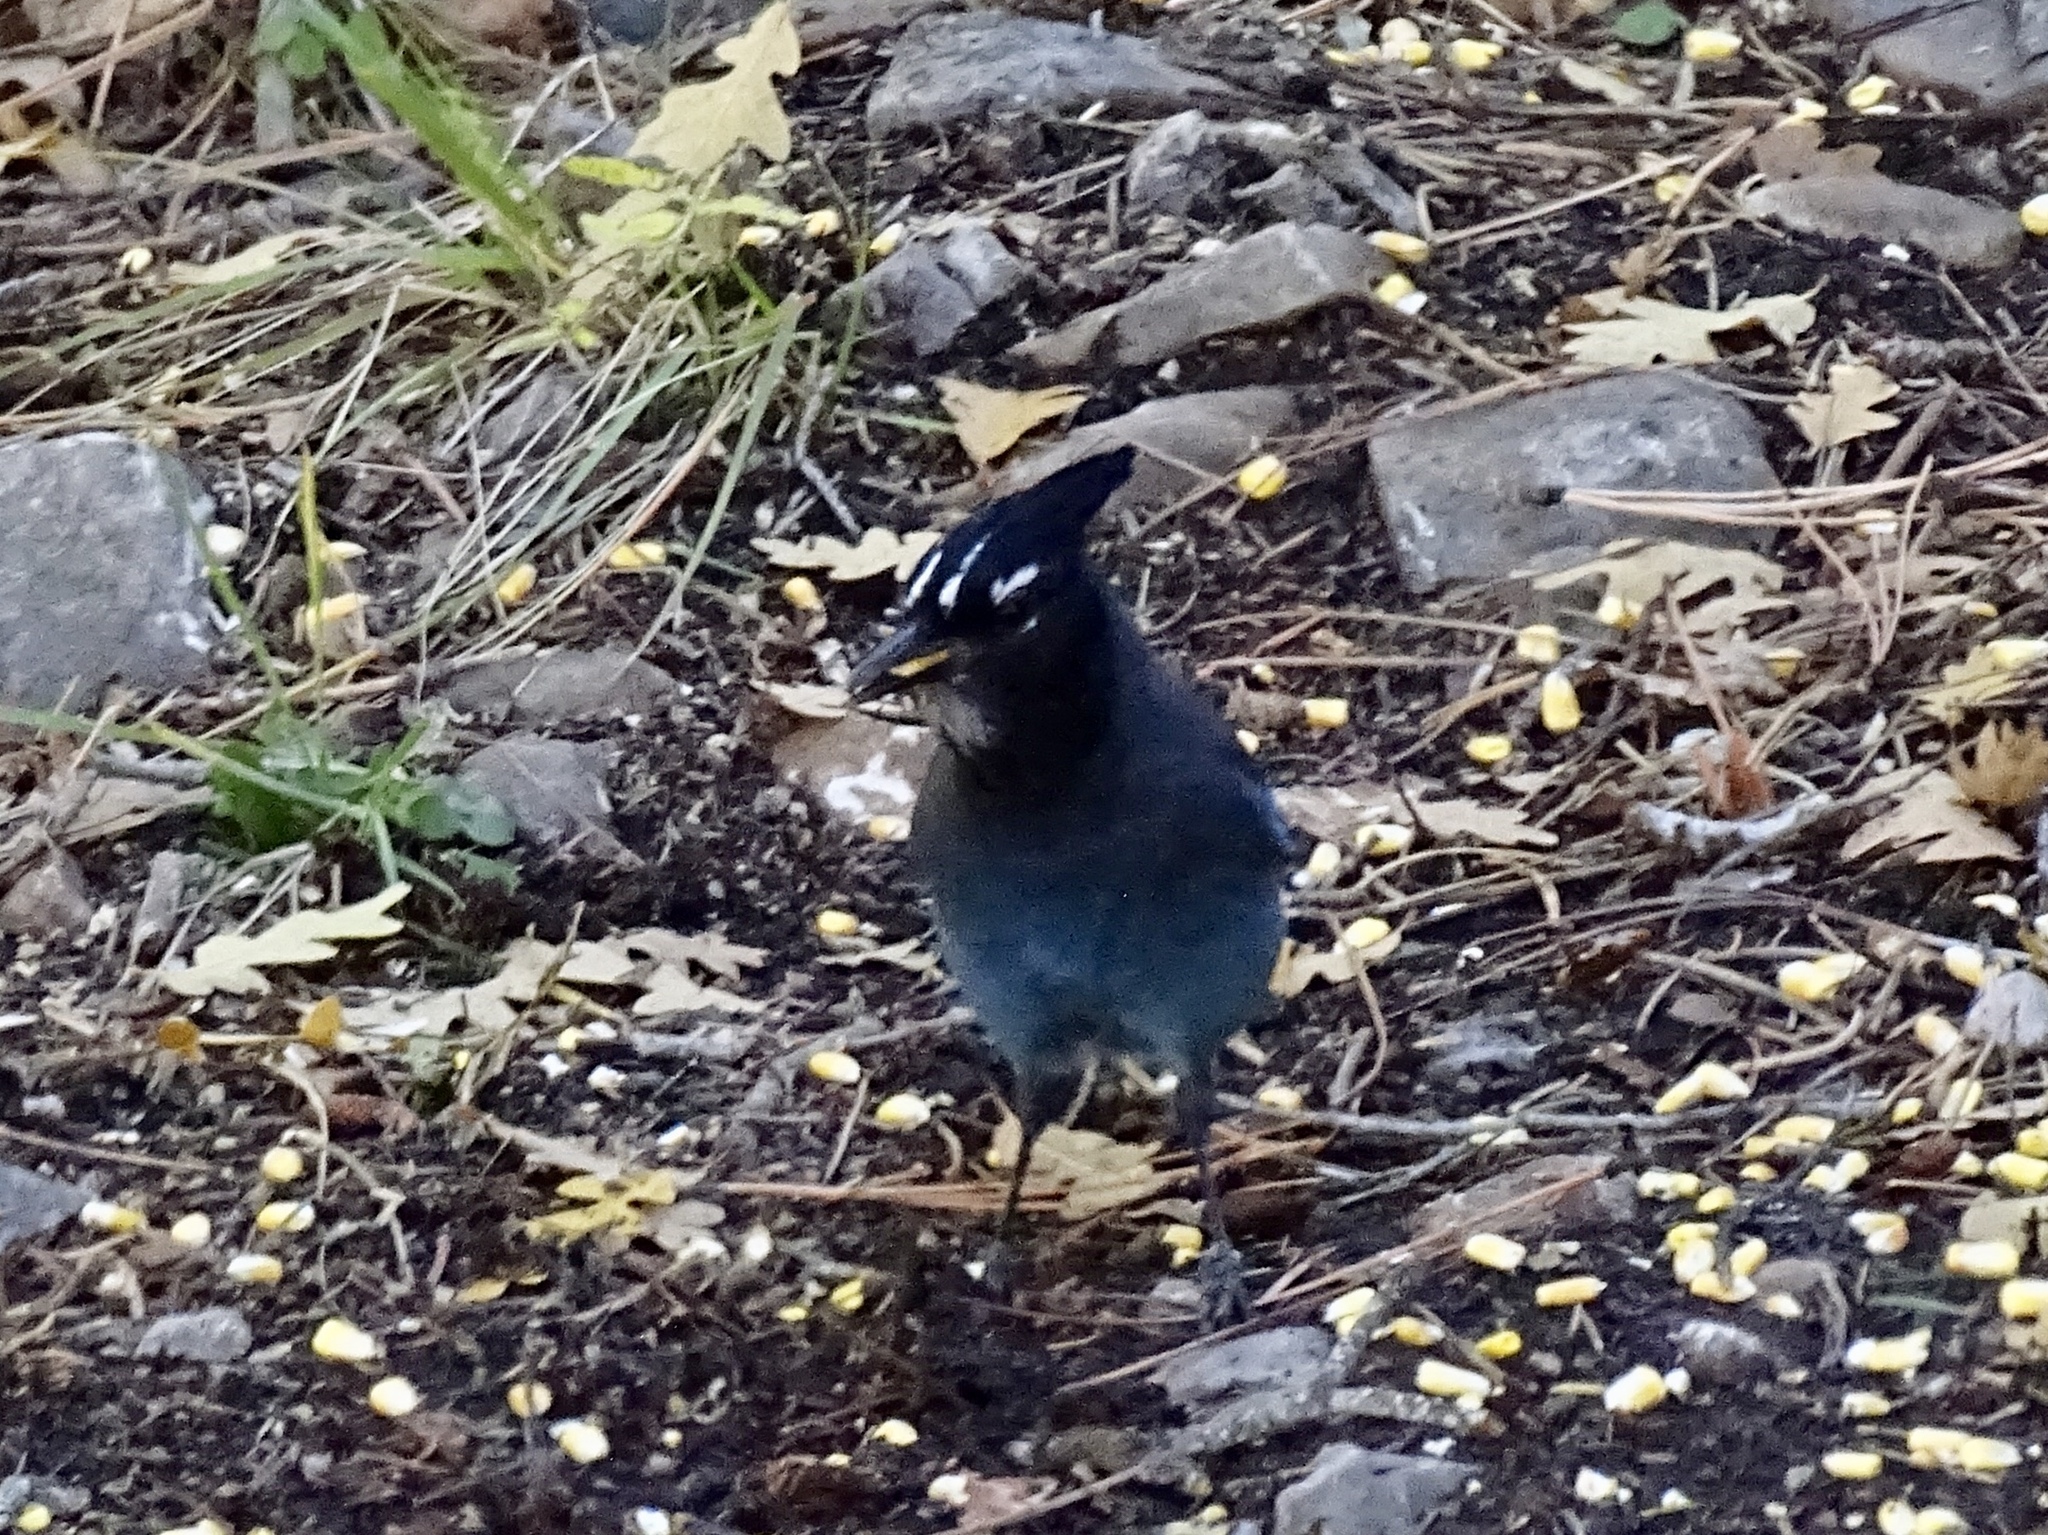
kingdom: Animalia
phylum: Chordata
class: Aves
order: Passeriformes
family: Corvidae
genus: Cyanocitta
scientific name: Cyanocitta stelleri
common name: Steller's jay
